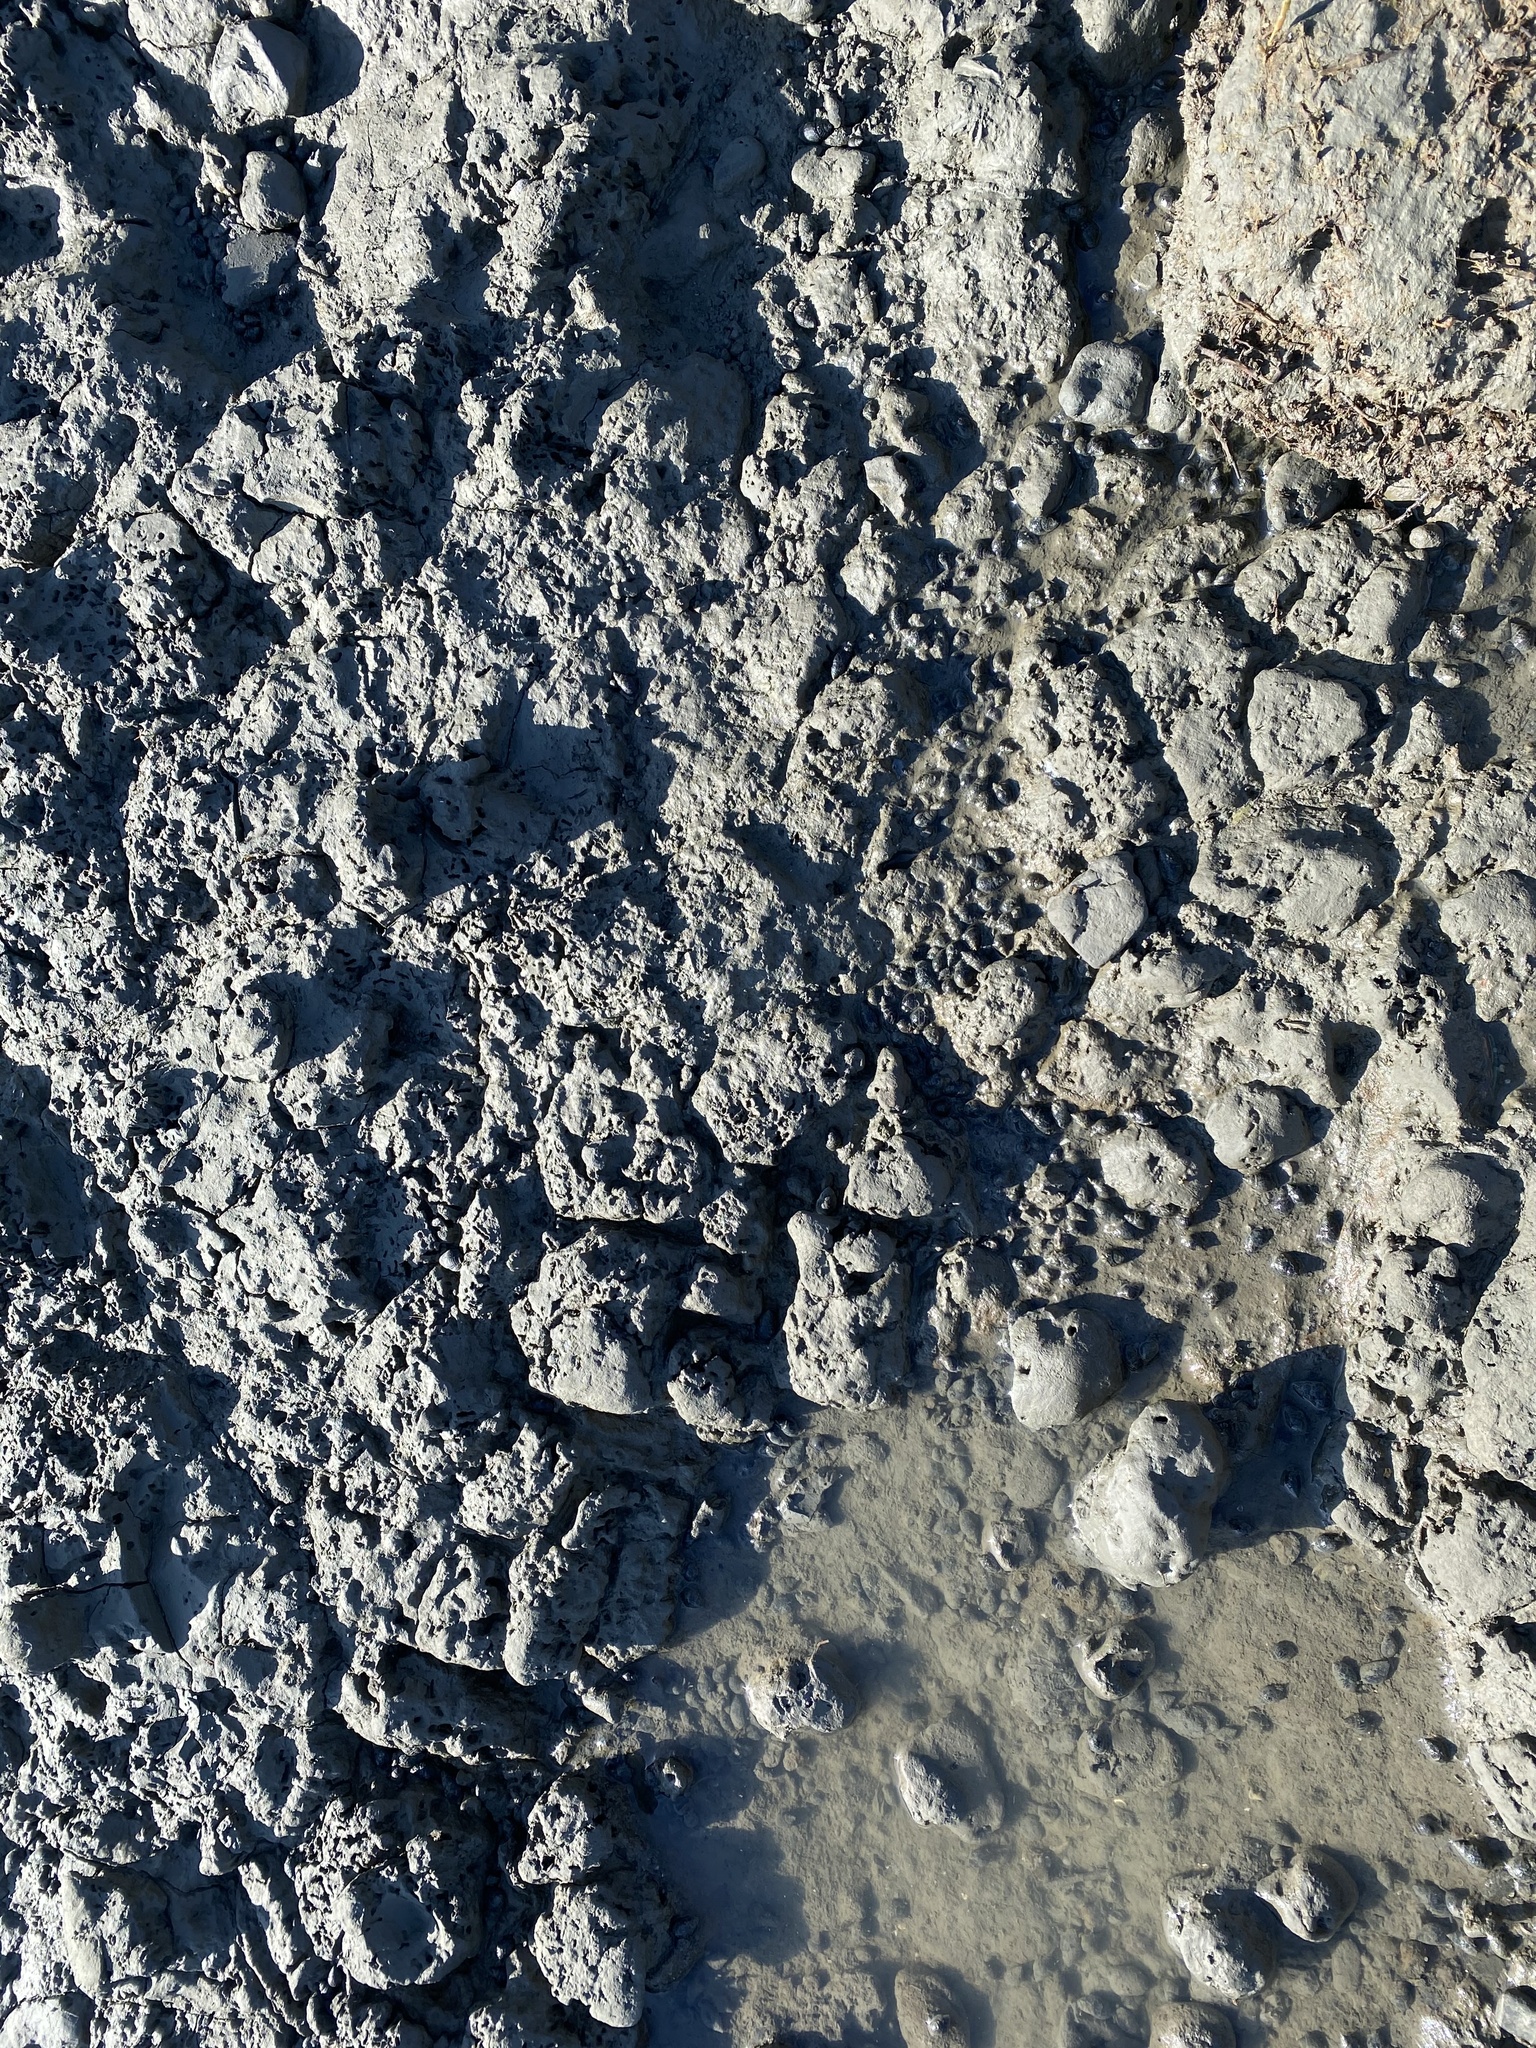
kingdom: Animalia
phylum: Mollusca
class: Gastropoda
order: Neogastropoda
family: Nassariidae
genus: Ilyanassa
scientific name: Ilyanassa obsoleta
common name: Eastern mudsnail
